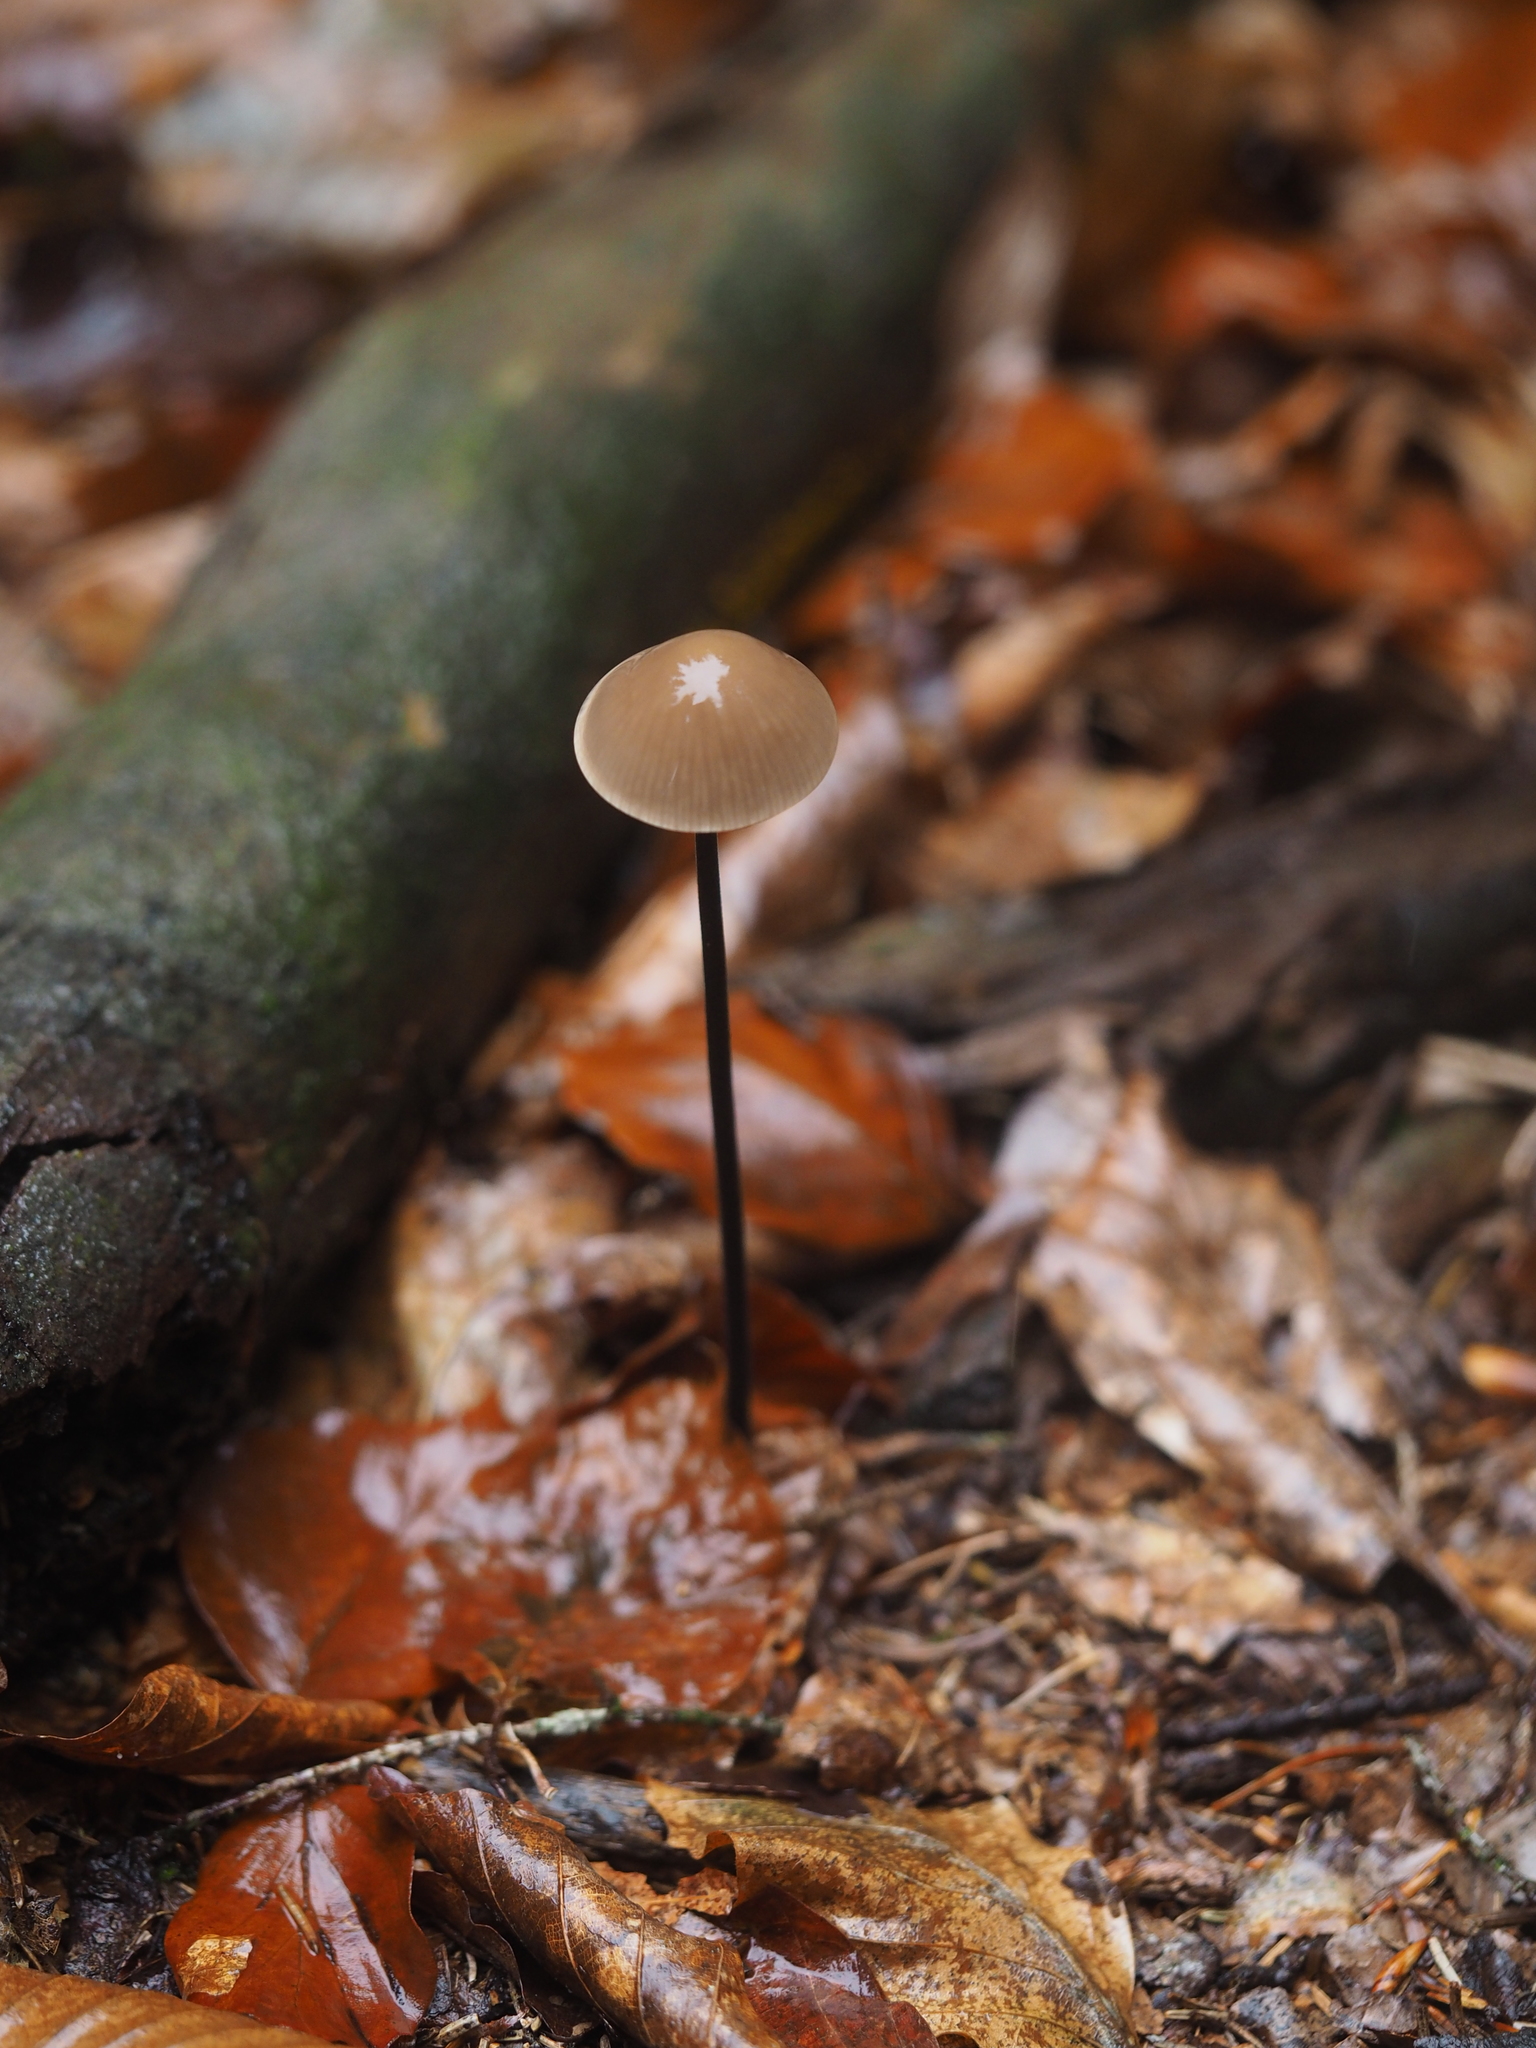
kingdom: Fungi
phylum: Basidiomycota
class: Agaricomycetes
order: Agaricales
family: Omphalotaceae
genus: Mycetinis
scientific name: Mycetinis alliaceus
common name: Garlic parachute
